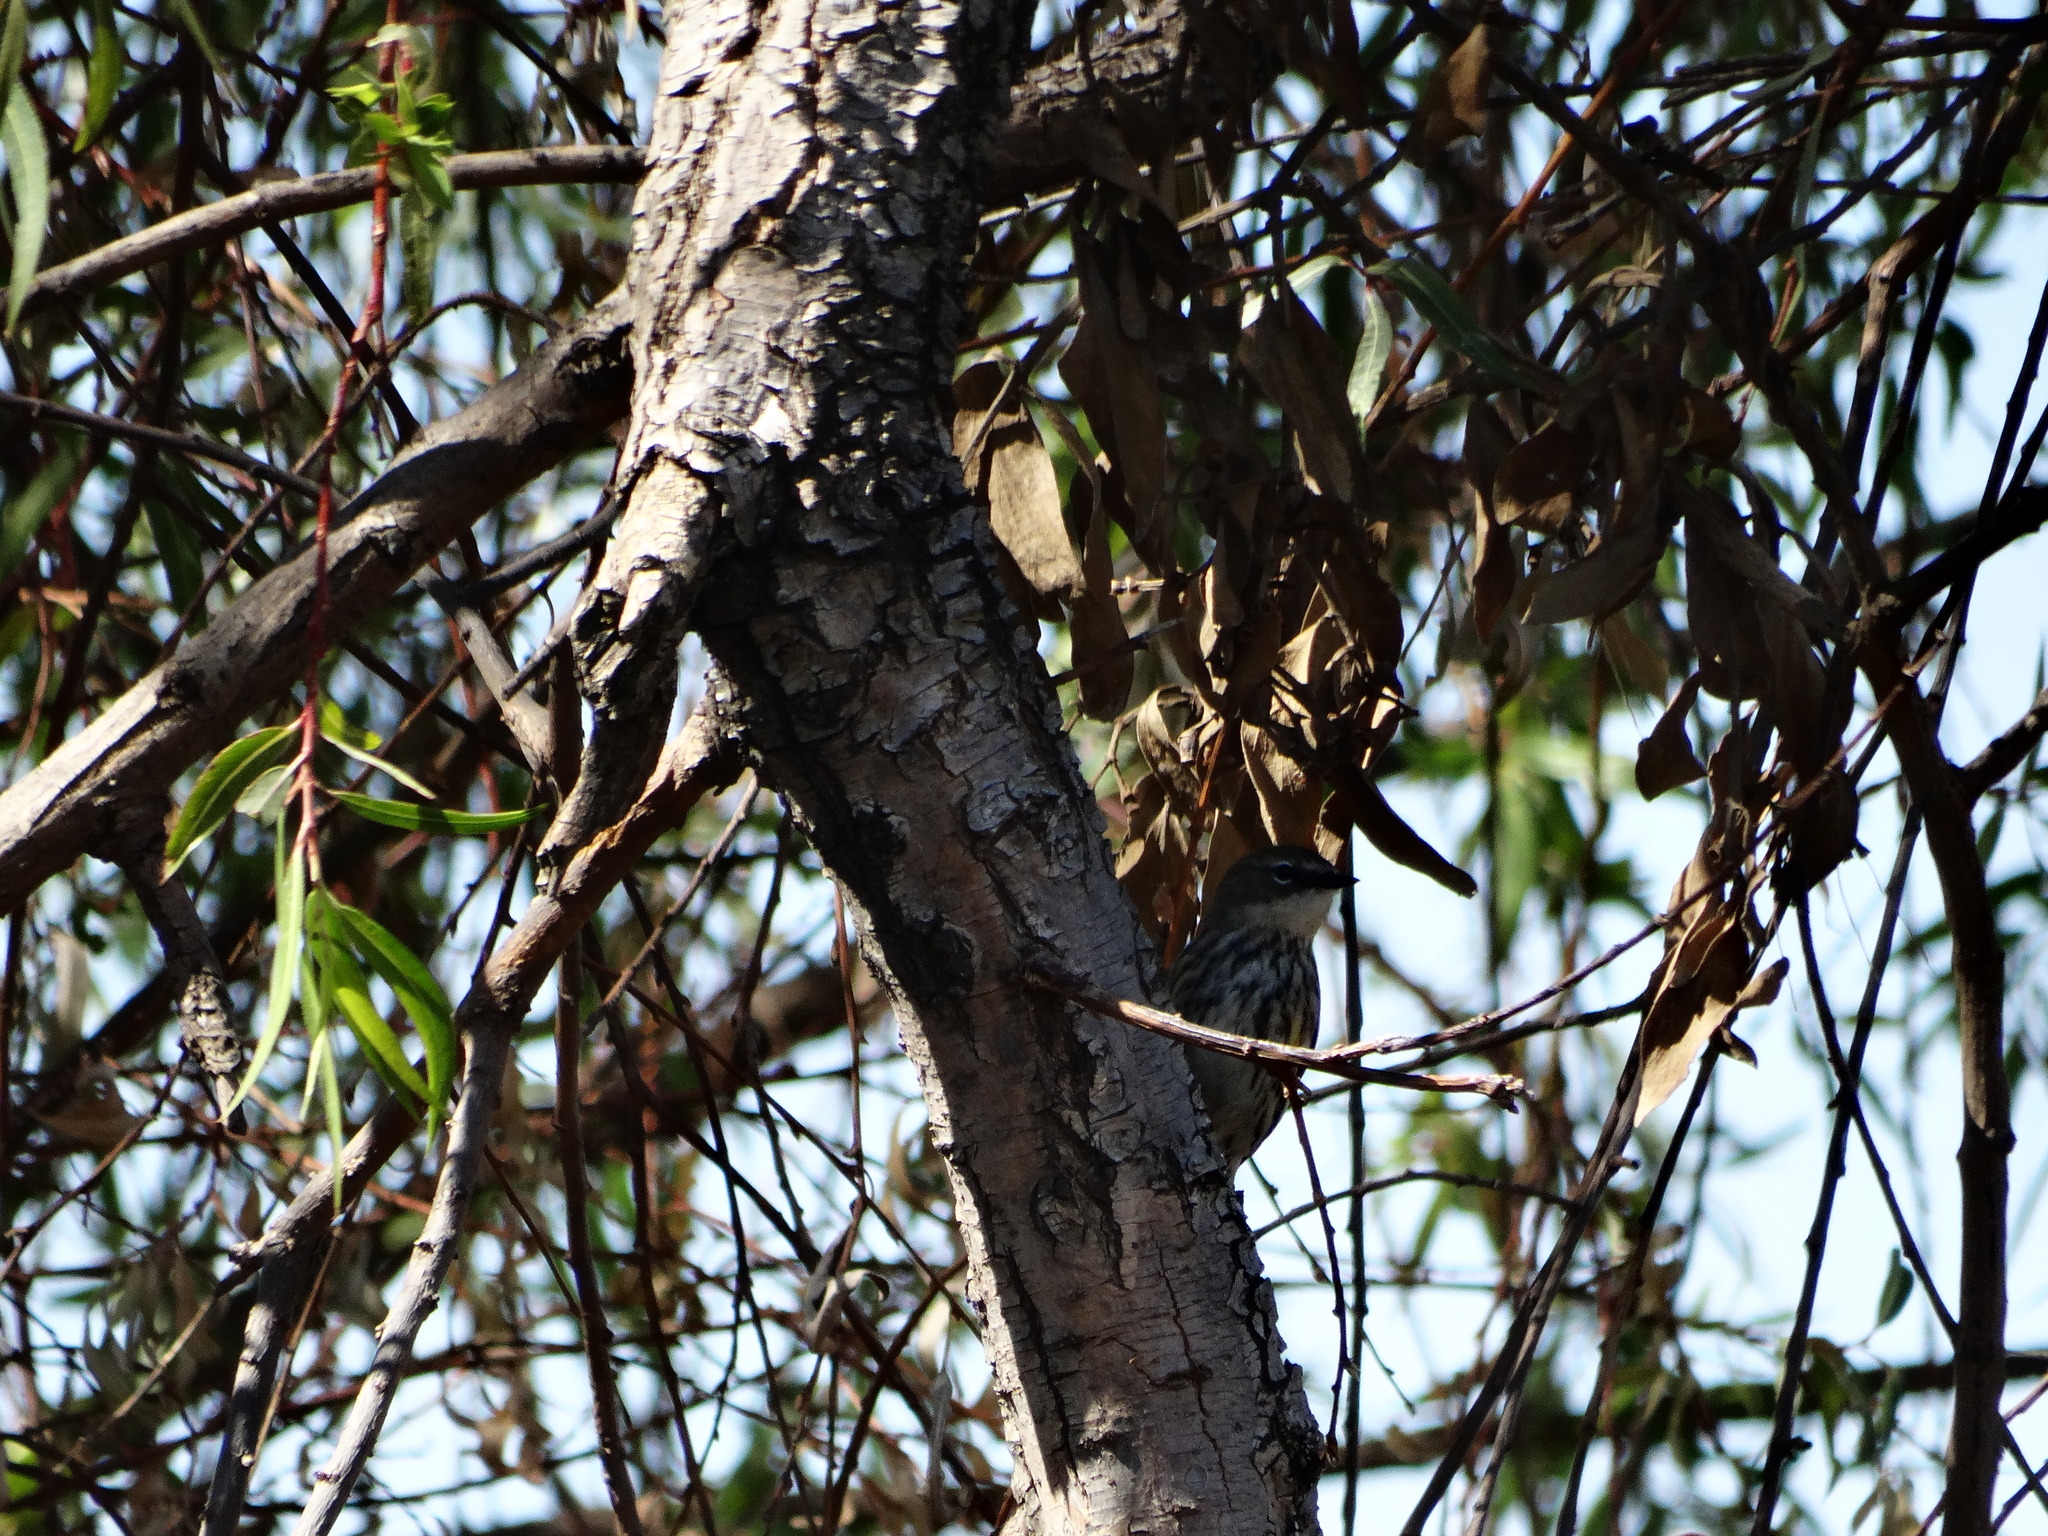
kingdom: Animalia
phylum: Chordata
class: Aves
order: Passeriformes
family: Parulidae
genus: Setophaga
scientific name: Setophaga coronata
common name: Myrtle warbler
